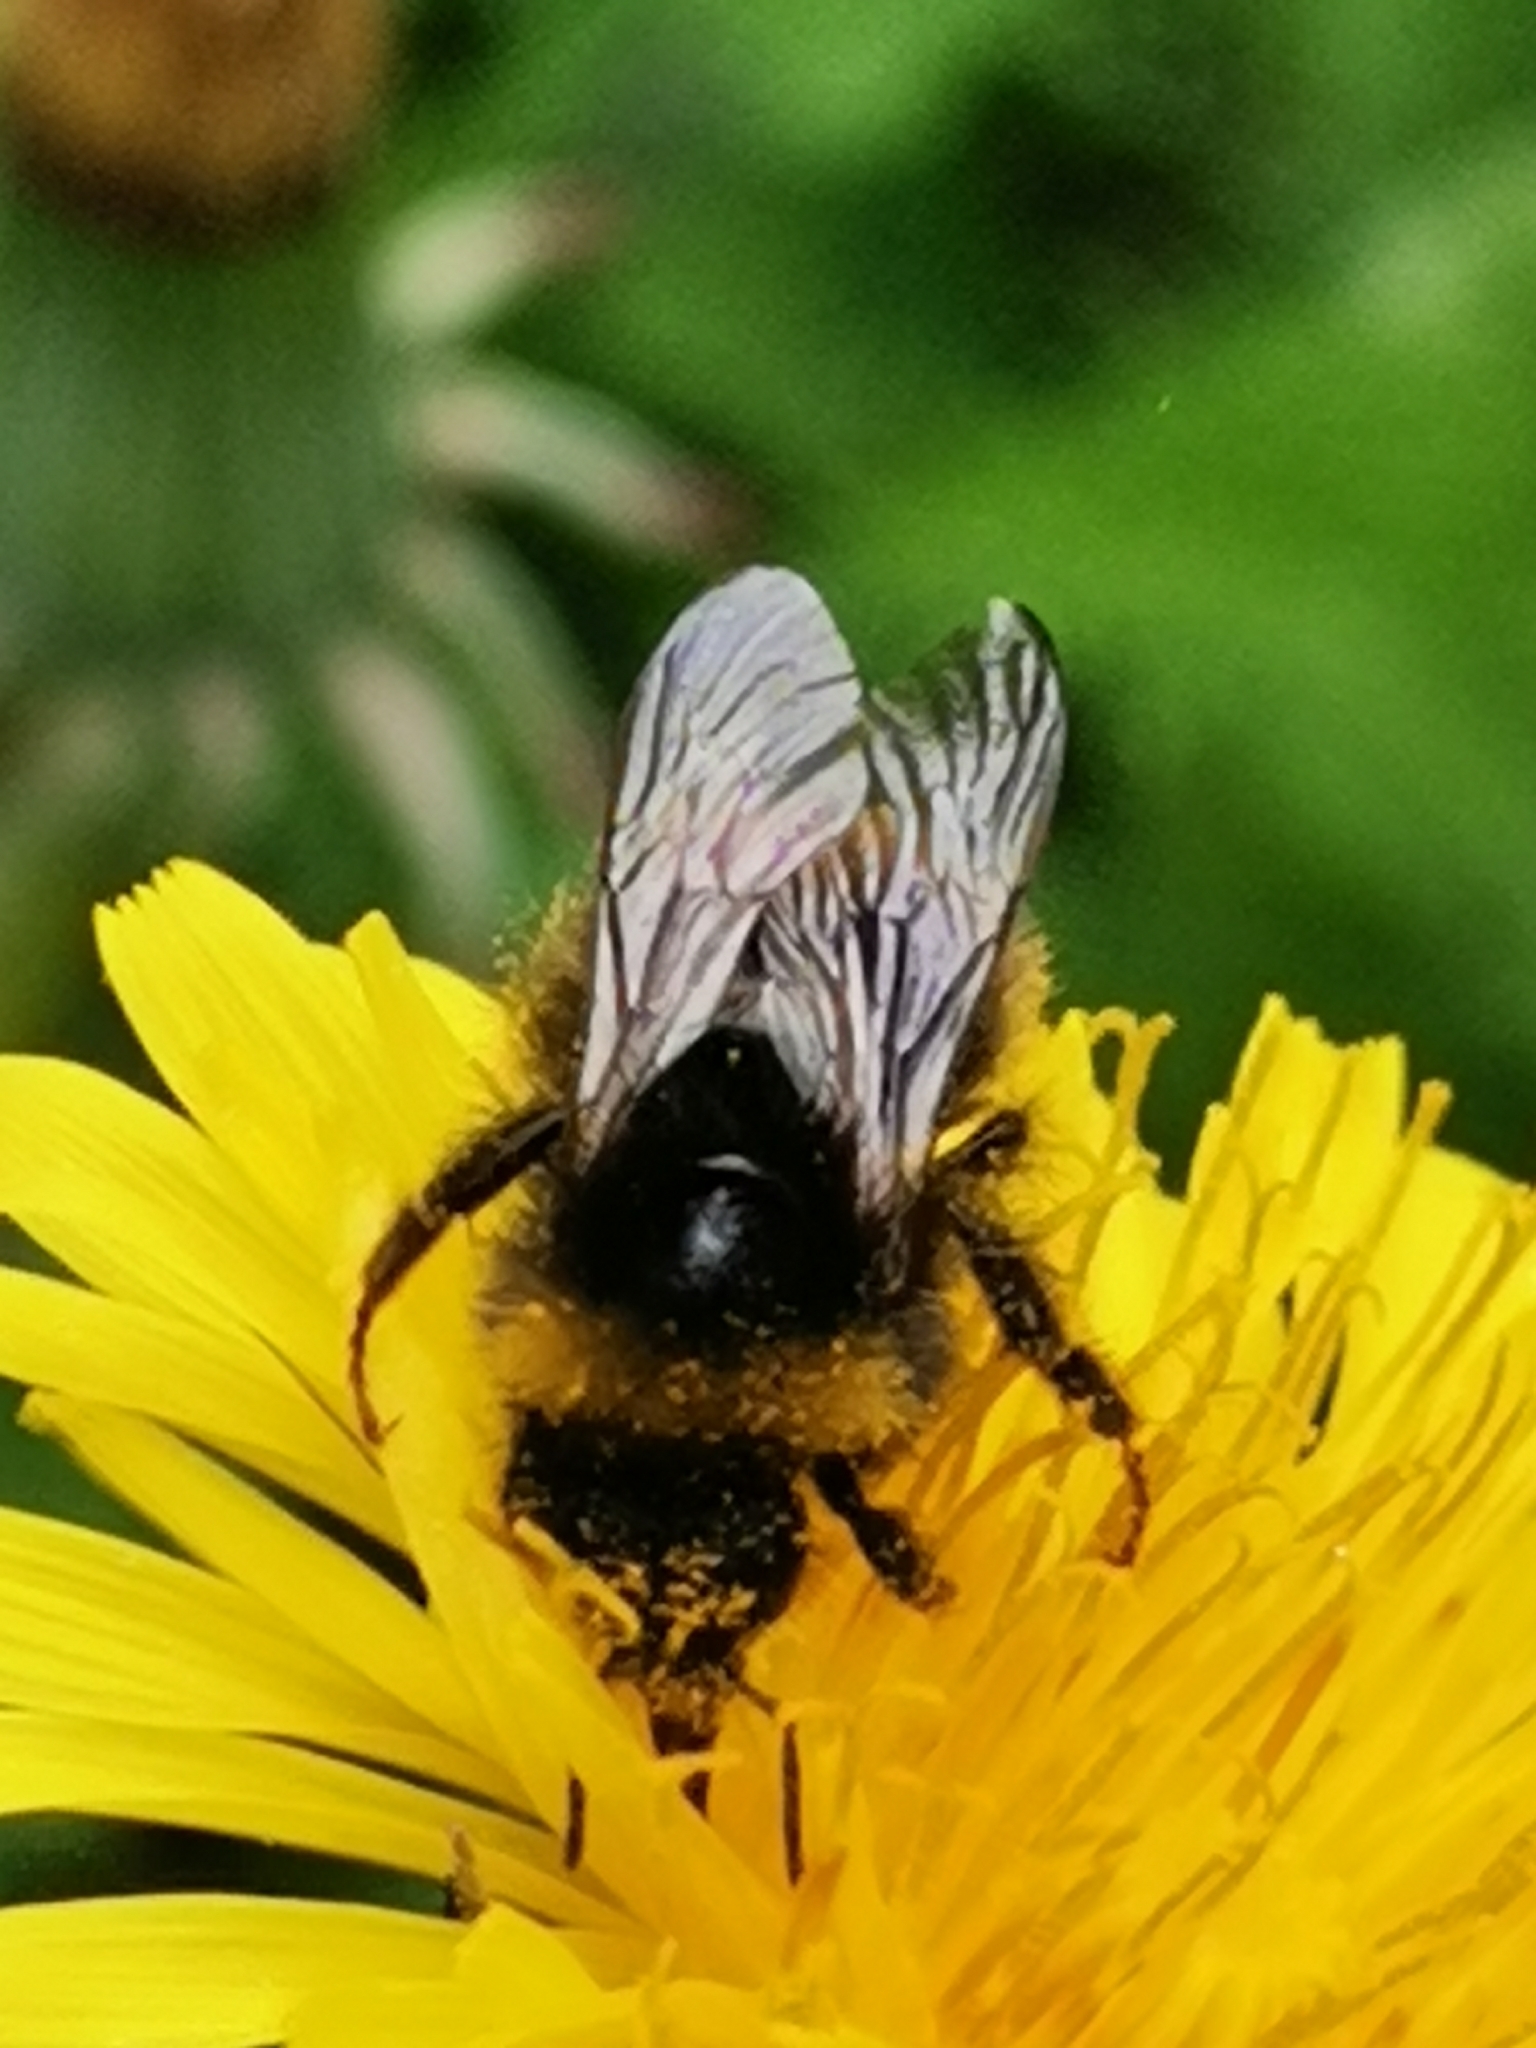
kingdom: Animalia
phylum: Arthropoda
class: Insecta
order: Hymenoptera
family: Apidae
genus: Bombus
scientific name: Bombus pratorum
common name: Early humble-bee
